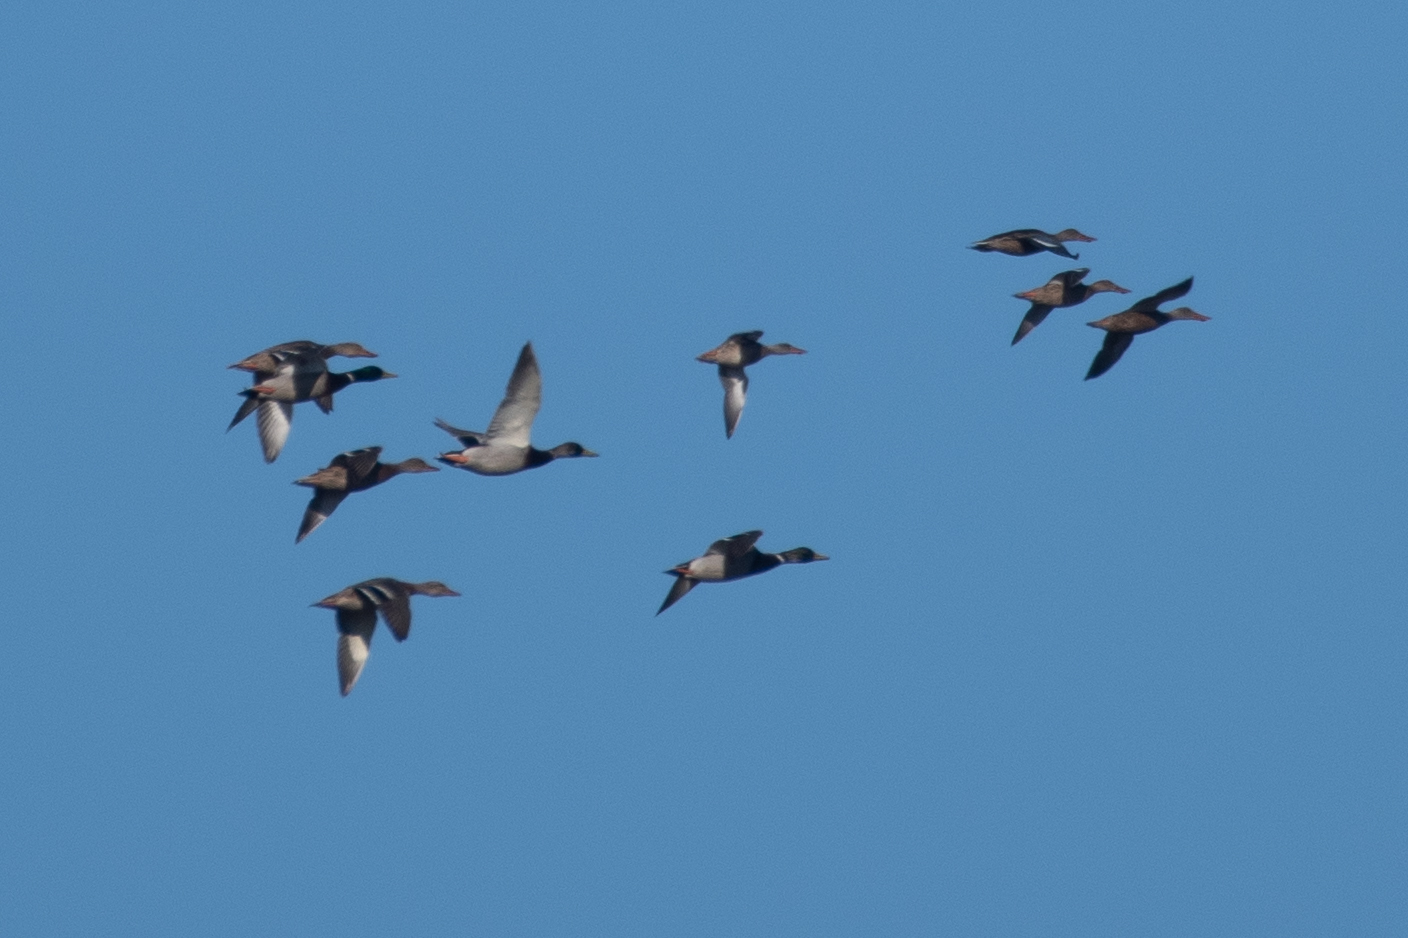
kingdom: Animalia
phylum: Chordata
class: Aves
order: Anseriformes
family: Anatidae
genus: Anas
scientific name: Anas platyrhynchos
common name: Mallard
